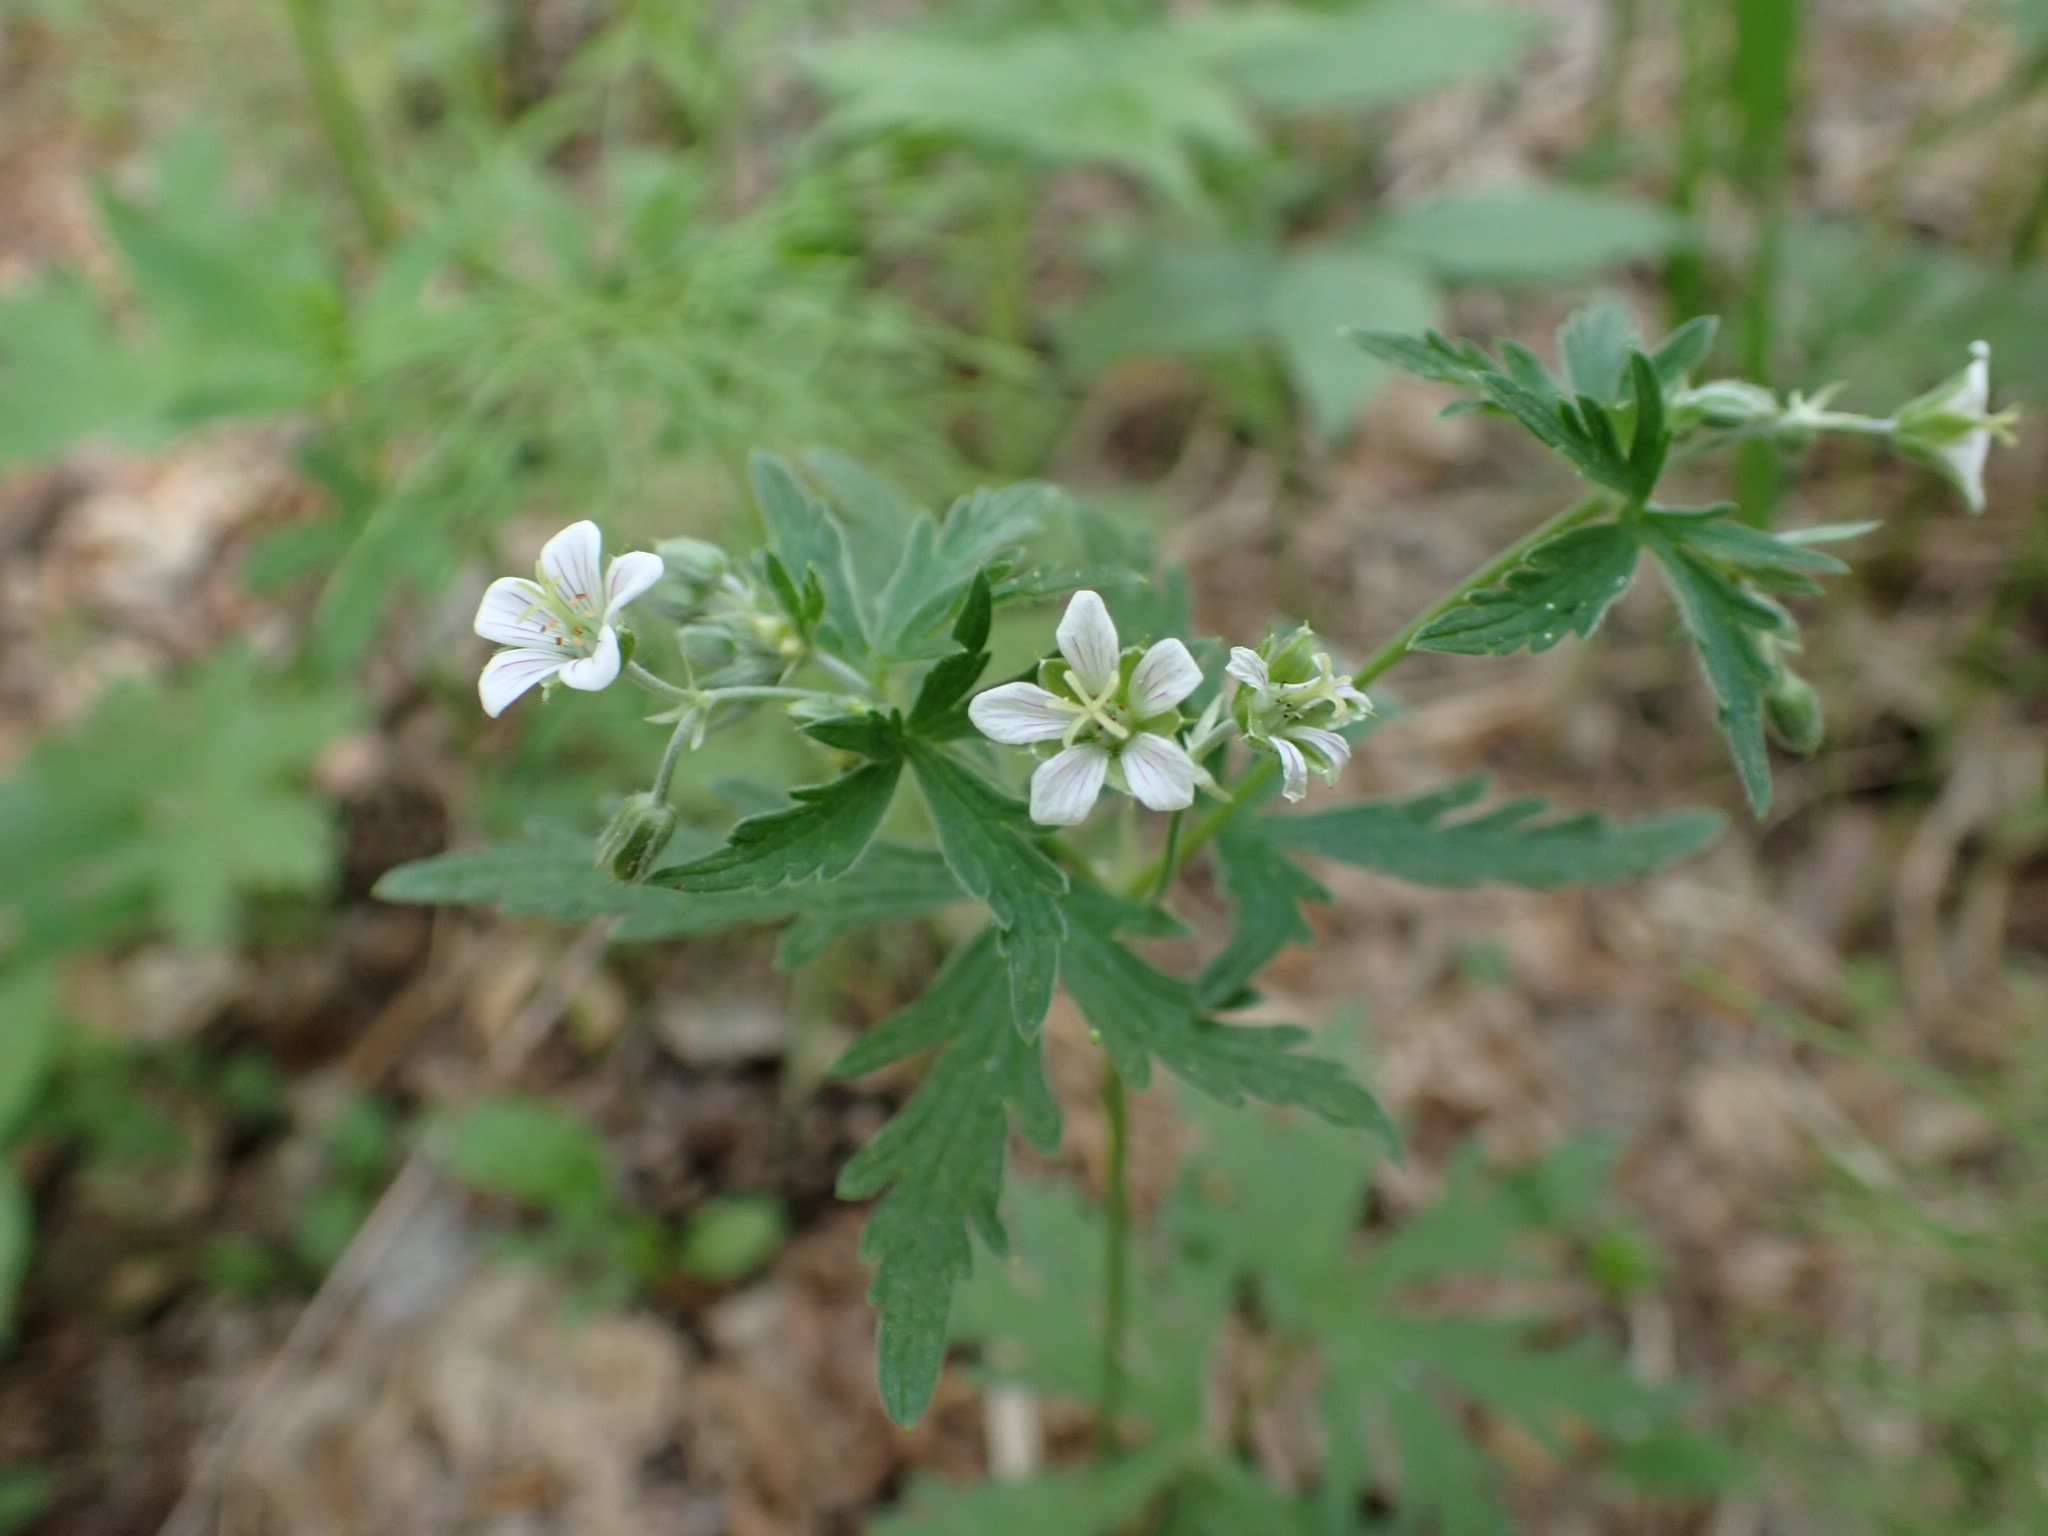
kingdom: Plantae
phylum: Tracheophyta
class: Magnoliopsida
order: Geraniales
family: Geraniaceae
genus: Geranium
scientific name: Geranium pseudosibiricum
